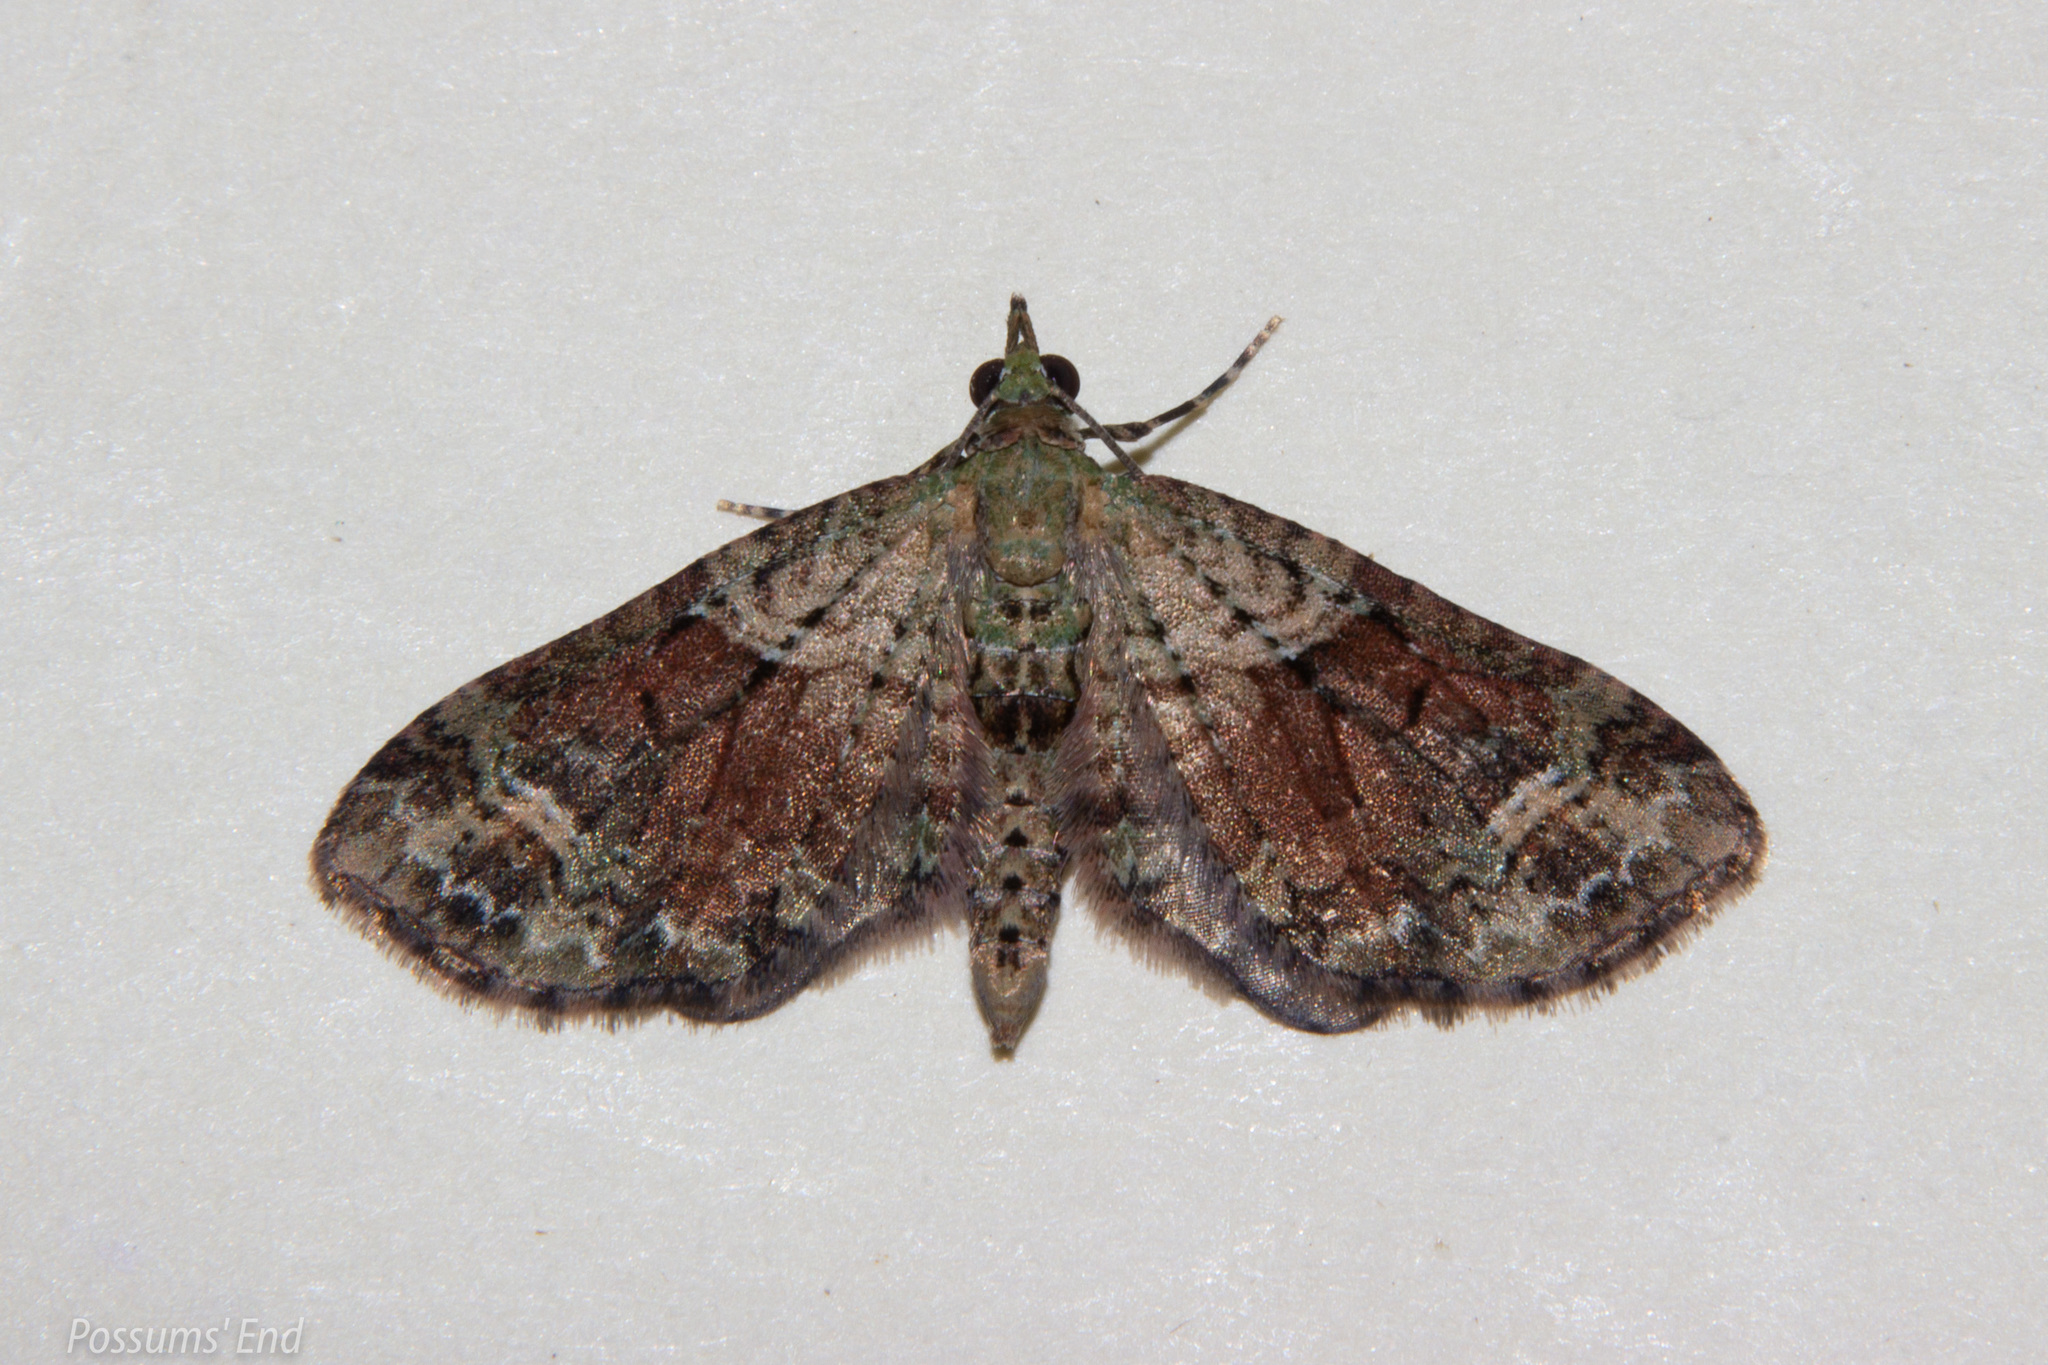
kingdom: Animalia
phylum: Arthropoda
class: Insecta
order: Lepidoptera
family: Geometridae
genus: Idaea
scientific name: Idaea mutanda
